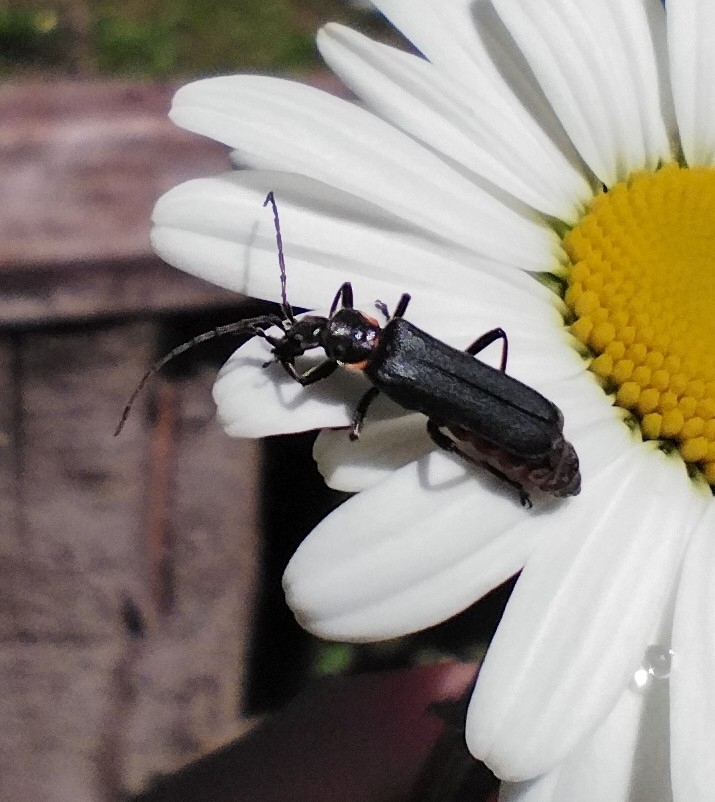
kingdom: Animalia
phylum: Arthropoda
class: Insecta
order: Coleoptera
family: Cantharidae
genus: Chauliognathus
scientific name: Chauliognathus
